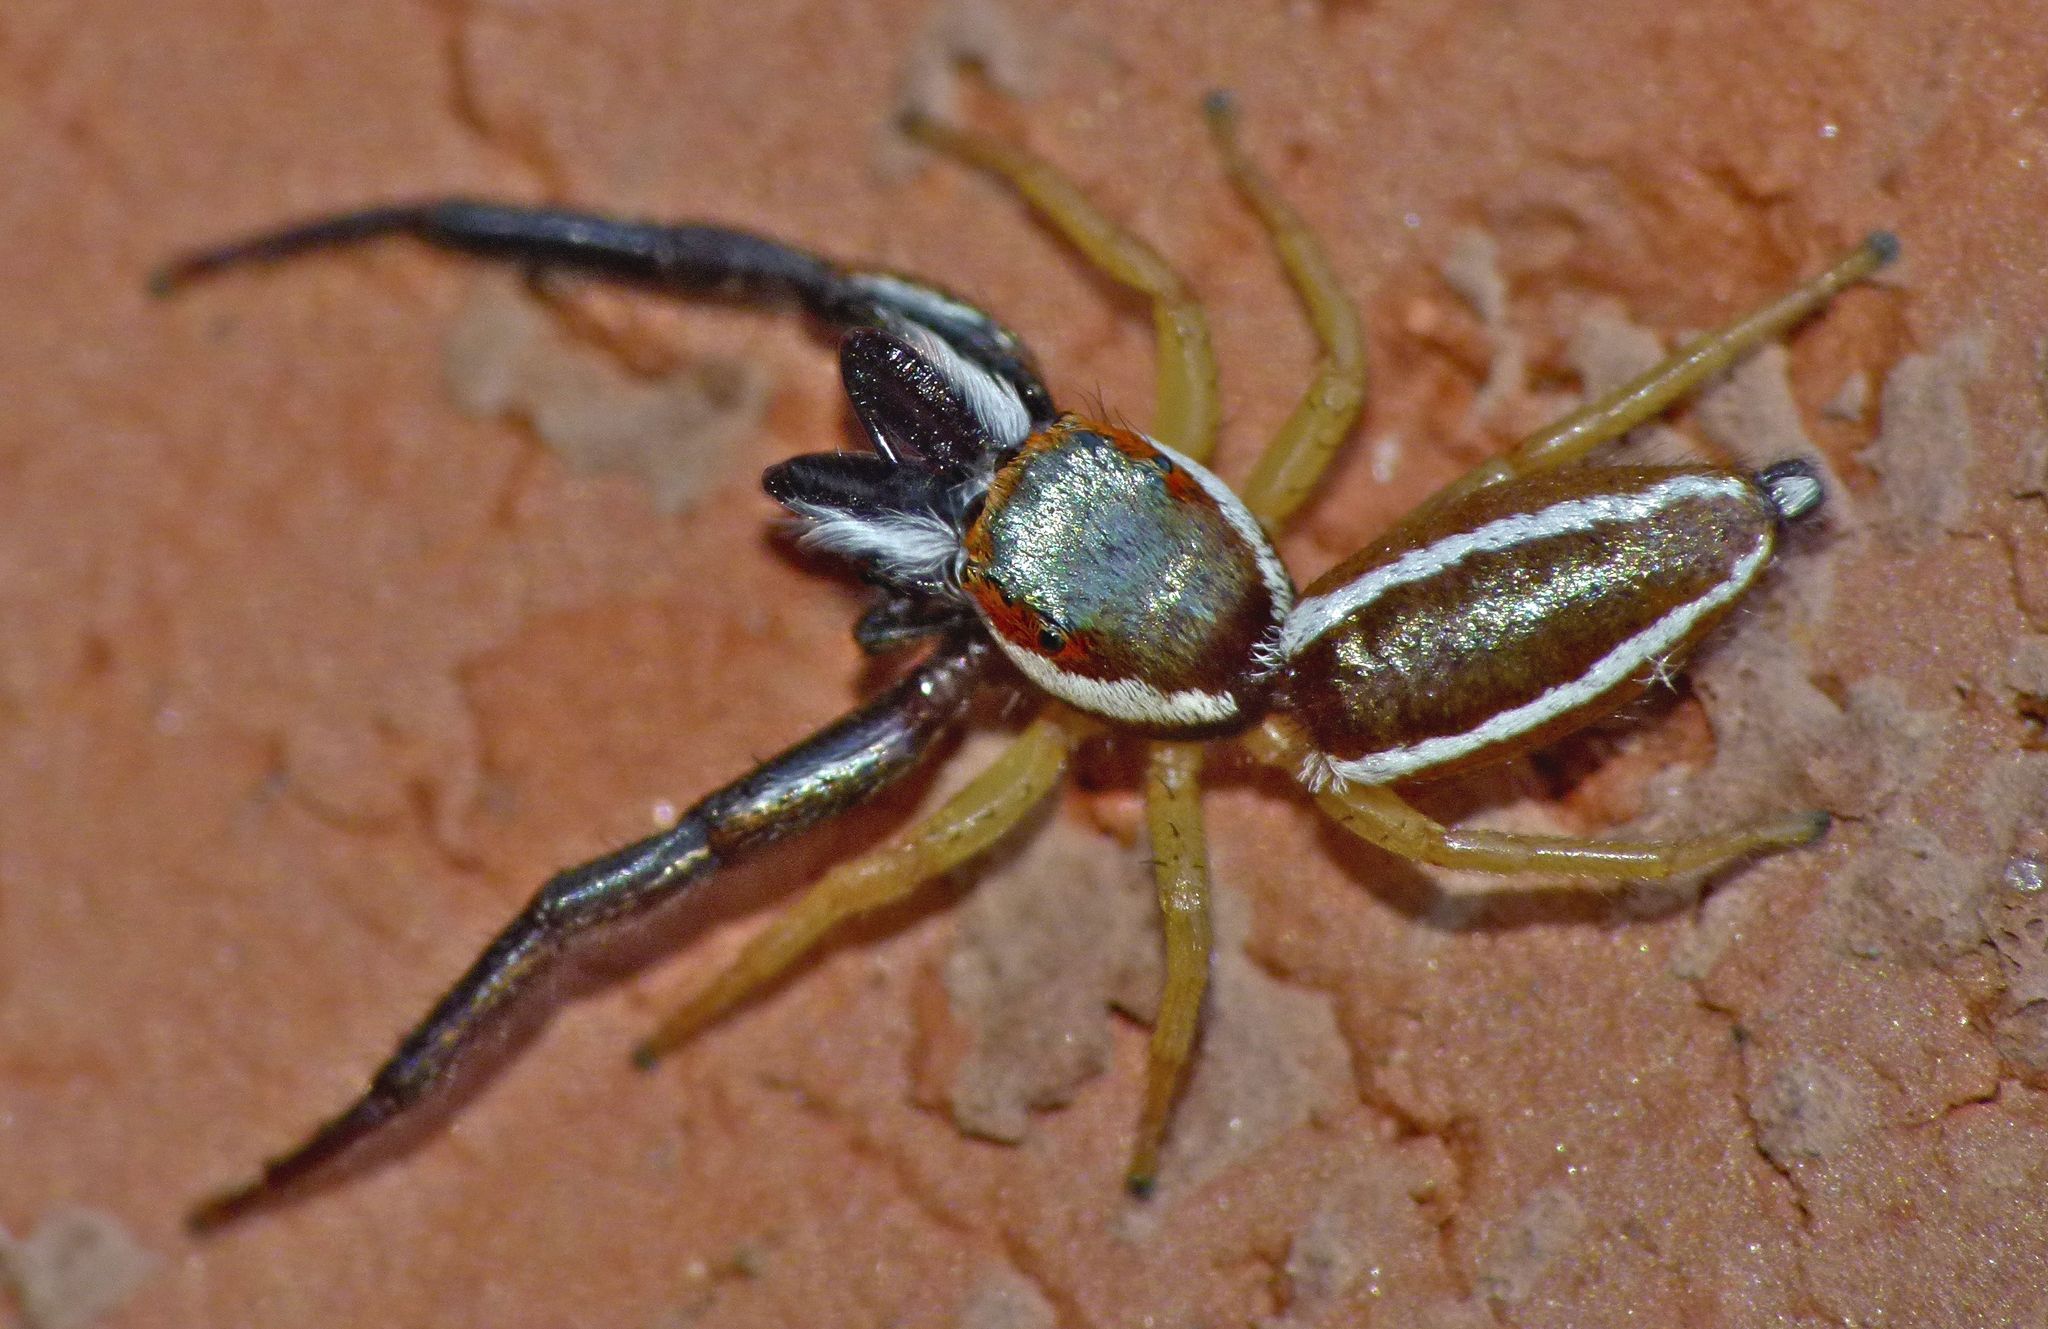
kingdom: Animalia
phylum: Arthropoda
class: Arachnida
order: Araneae
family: Salticidae
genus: Hentzia
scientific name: Hentzia palmarum
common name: Common hentz jumping spider
